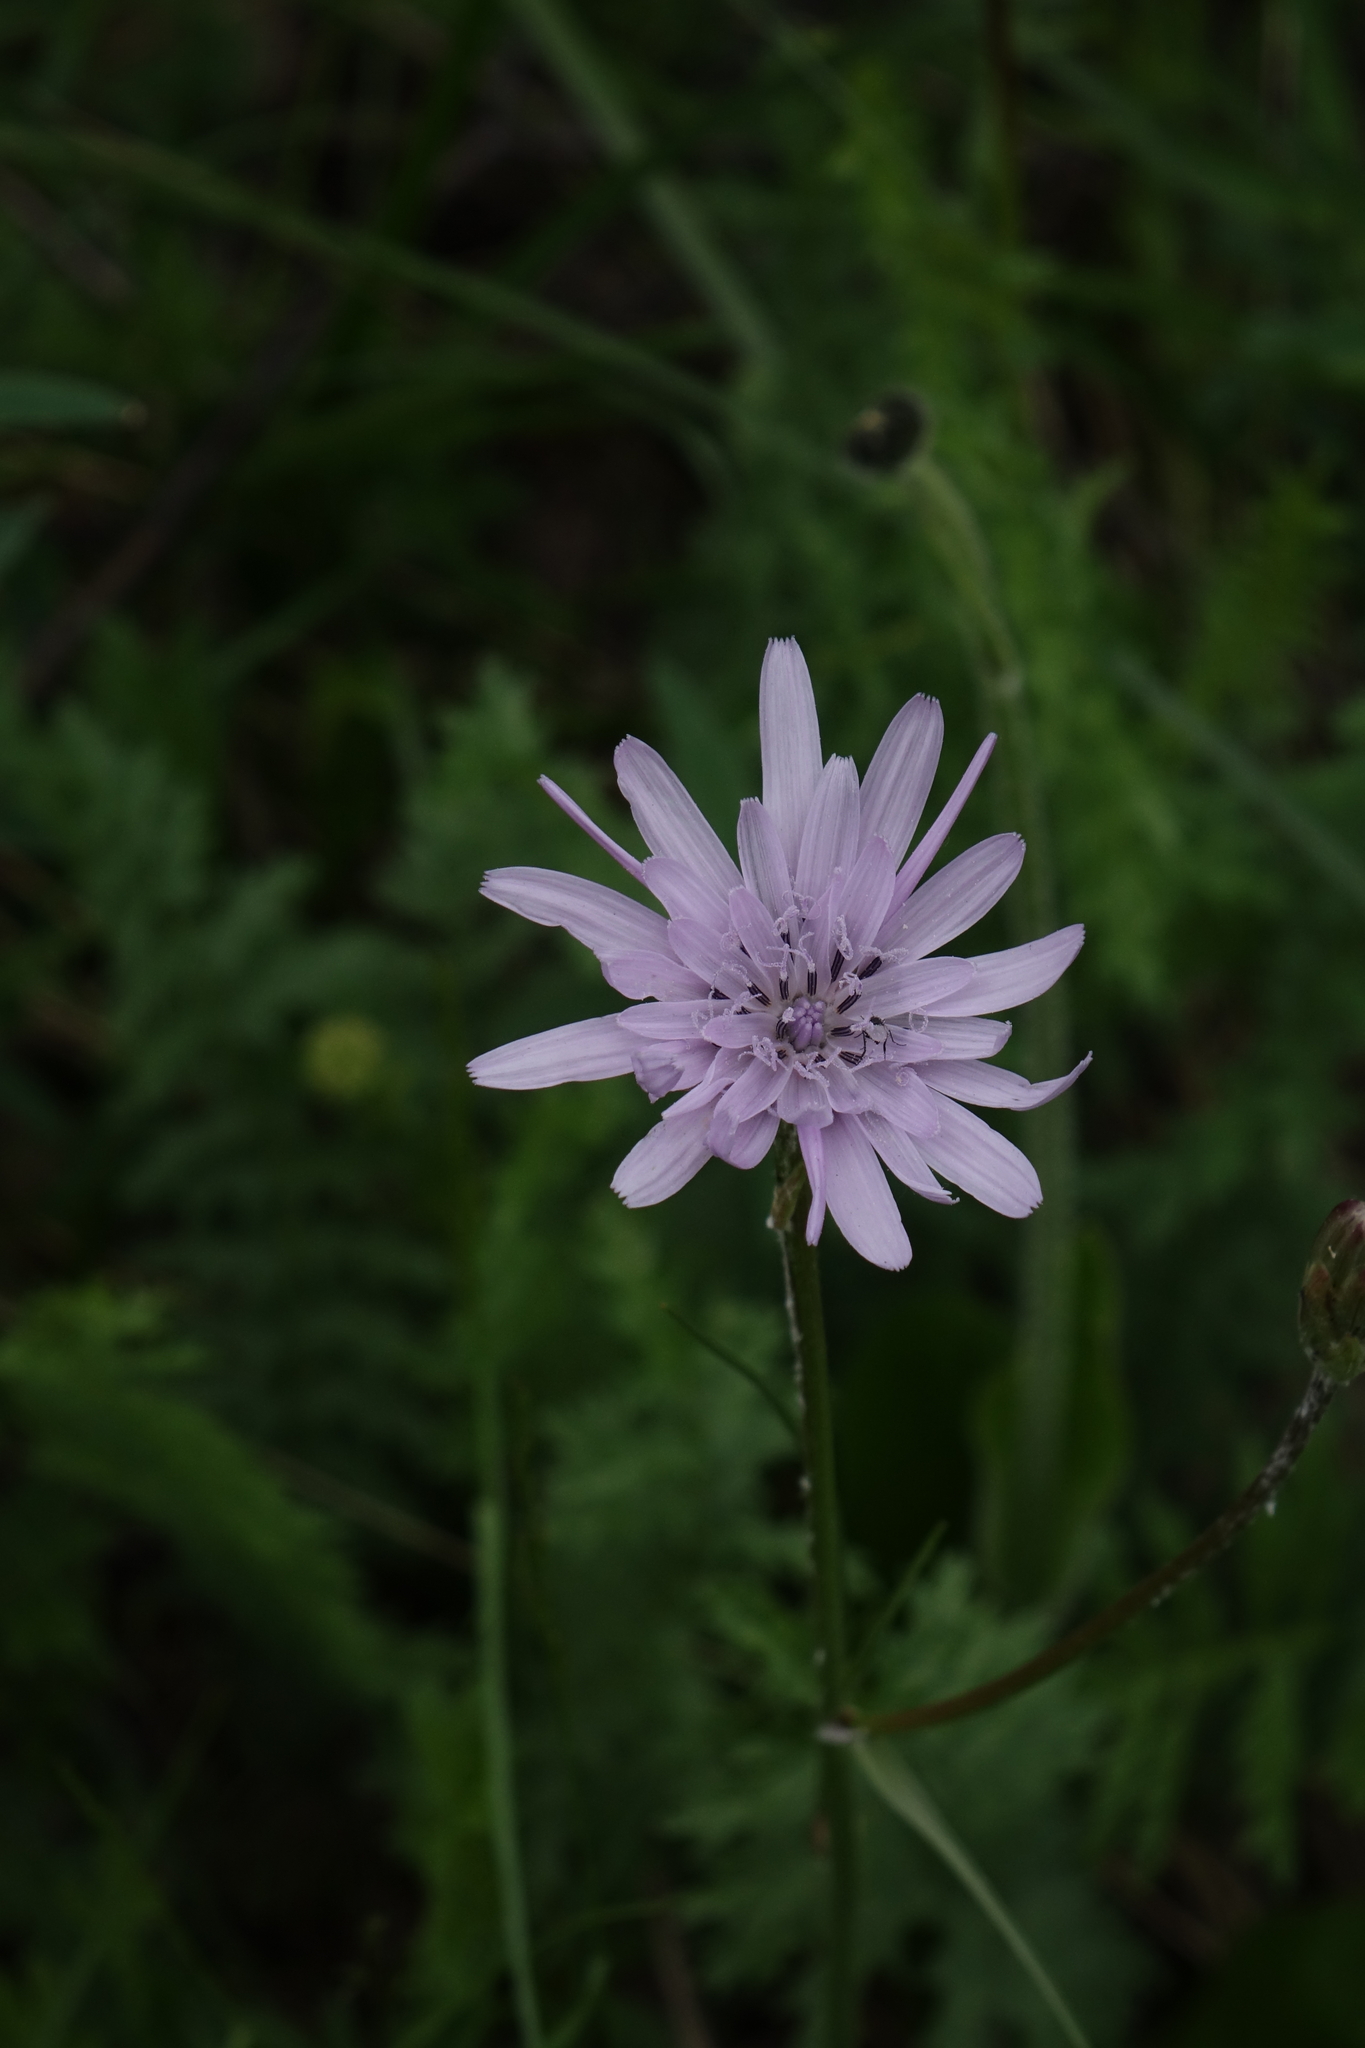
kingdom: Plantae
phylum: Tracheophyta
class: Magnoliopsida
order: Asterales
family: Asteraceae
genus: Scorzonera
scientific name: Scorzonera purpurea
